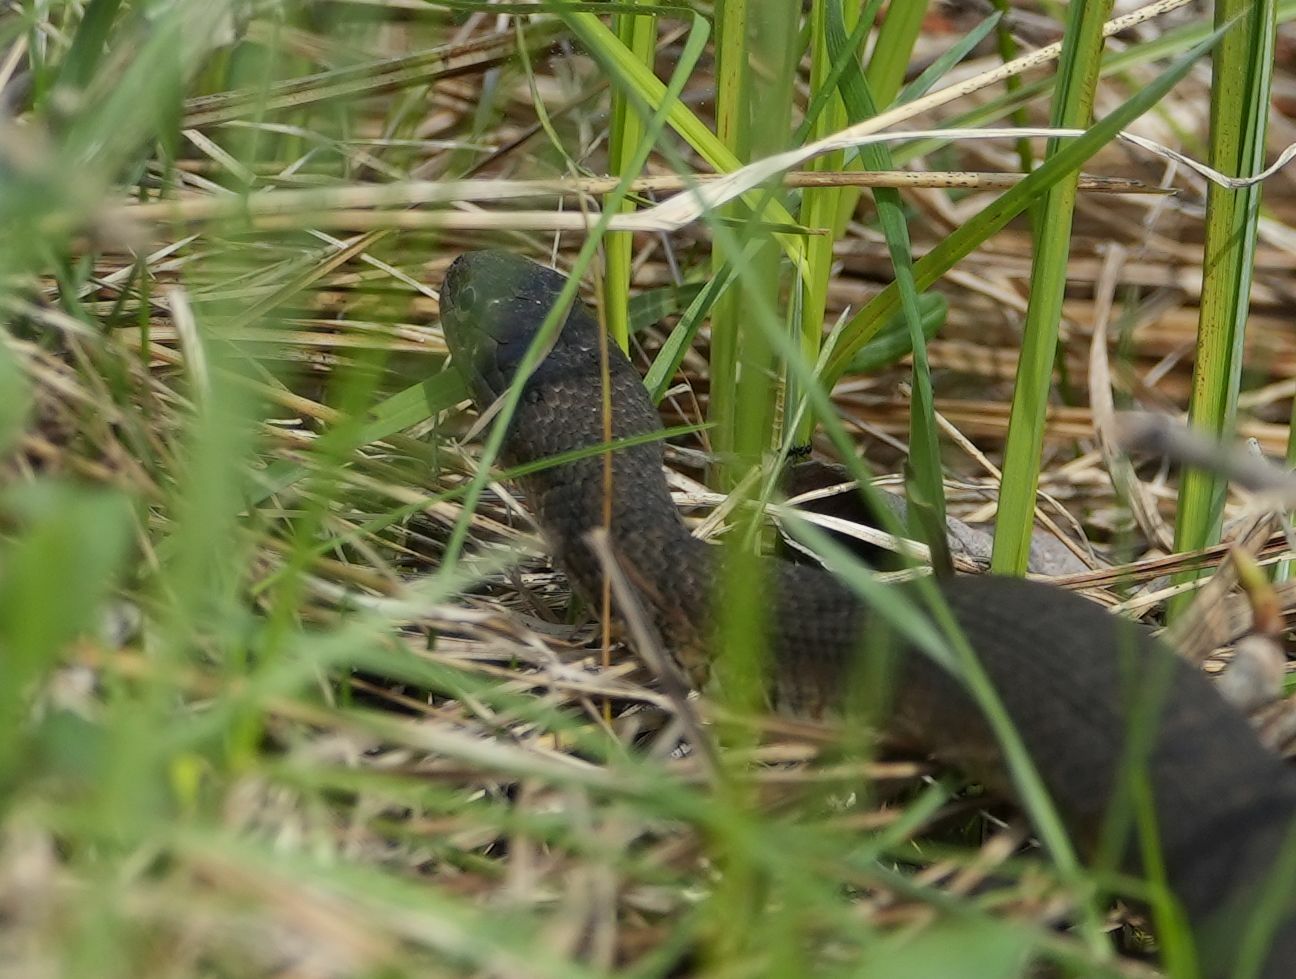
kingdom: Animalia
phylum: Chordata
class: Squamata
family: Colubridae
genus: Nerodia
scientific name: Nerodia sipedon
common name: Northern water snake
